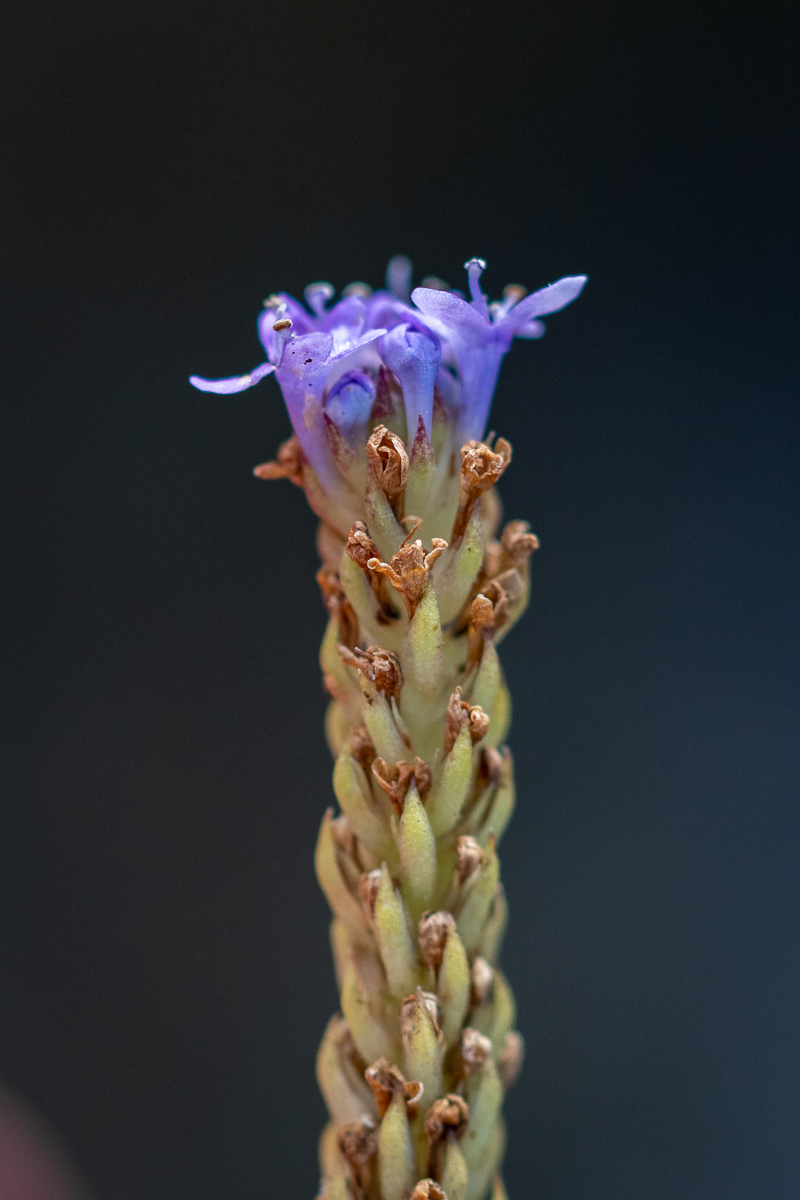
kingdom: Plantae
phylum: Tracheophyta
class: Magnoliopsida
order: Lamiales
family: Scrophulariaceae
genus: Pseudoselago
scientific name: Pseudoselago serrata
